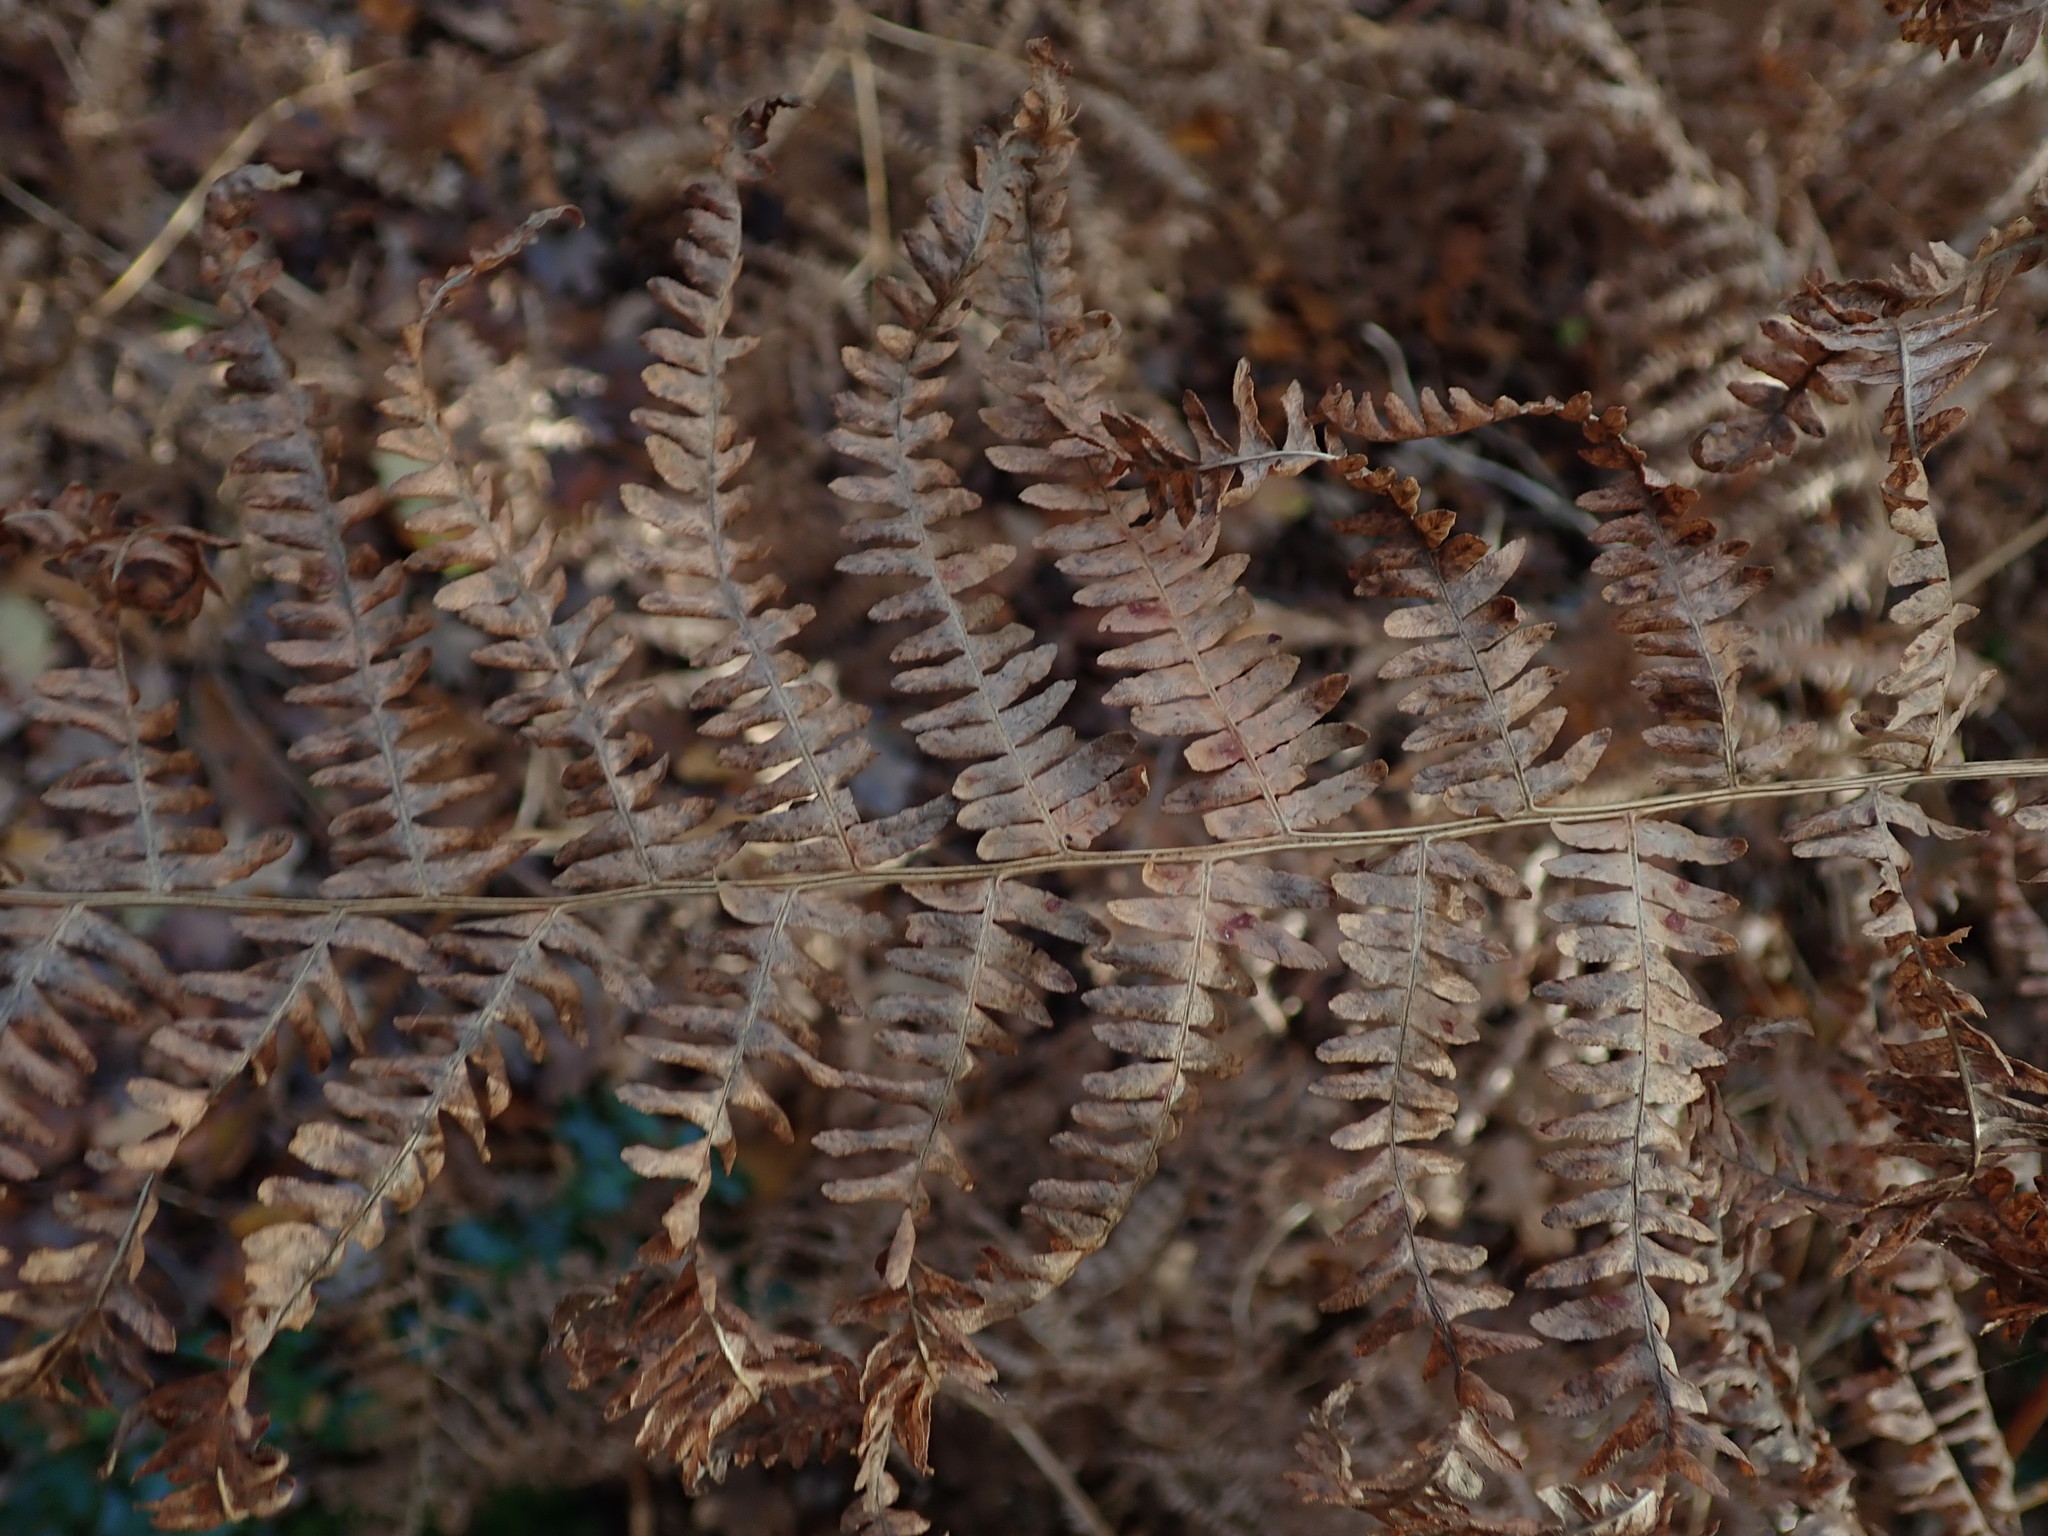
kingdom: Plantae
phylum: Tracheophyta
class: Polypodiopsida
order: Polypodiales
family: Dennstaedtiaceae
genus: Pteridium
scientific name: Pteridium aquilinum
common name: Bracken
